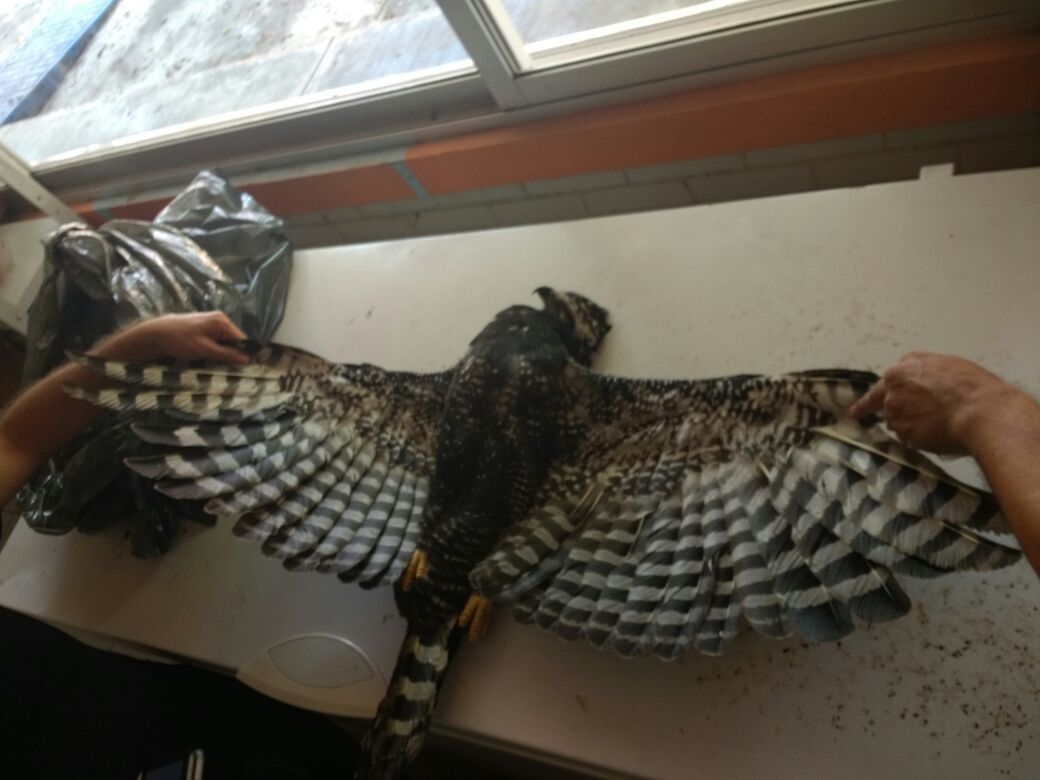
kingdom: Animalia
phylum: Chordata
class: Aves
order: Accipitriformes
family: Accipitridae
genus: Spizaetus
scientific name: Spizaetus tyrannus
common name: Black hawk-eagle
